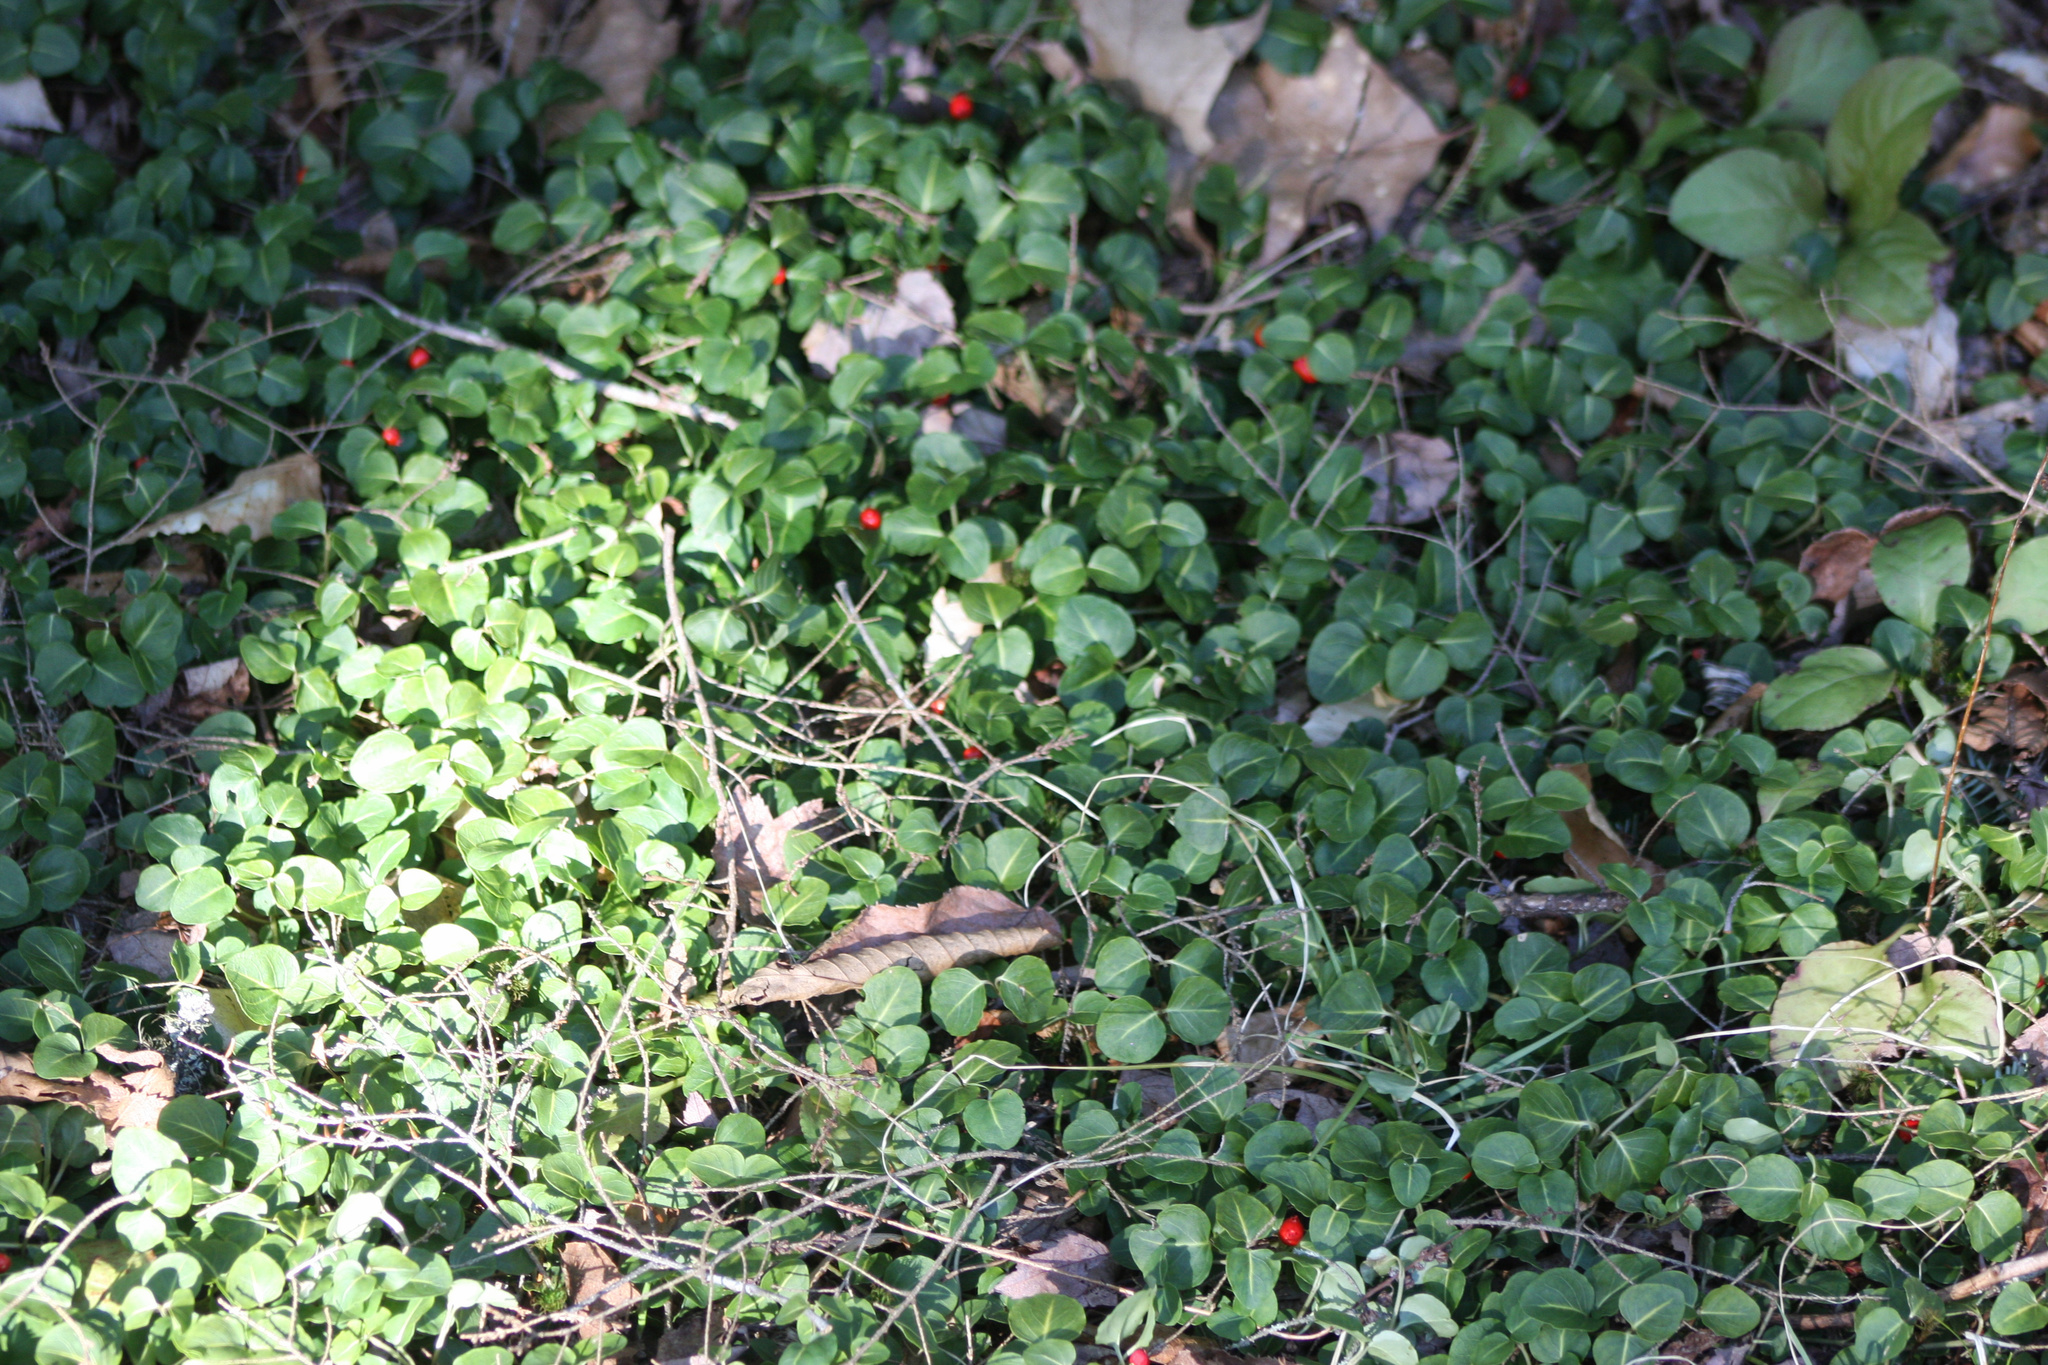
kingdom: Plantae
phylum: Tracheophyta
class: Magnoliopsida
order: Gentianales
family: Rubiaceae
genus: Mitchella
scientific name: Mitchella repens
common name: Partridge-berry
